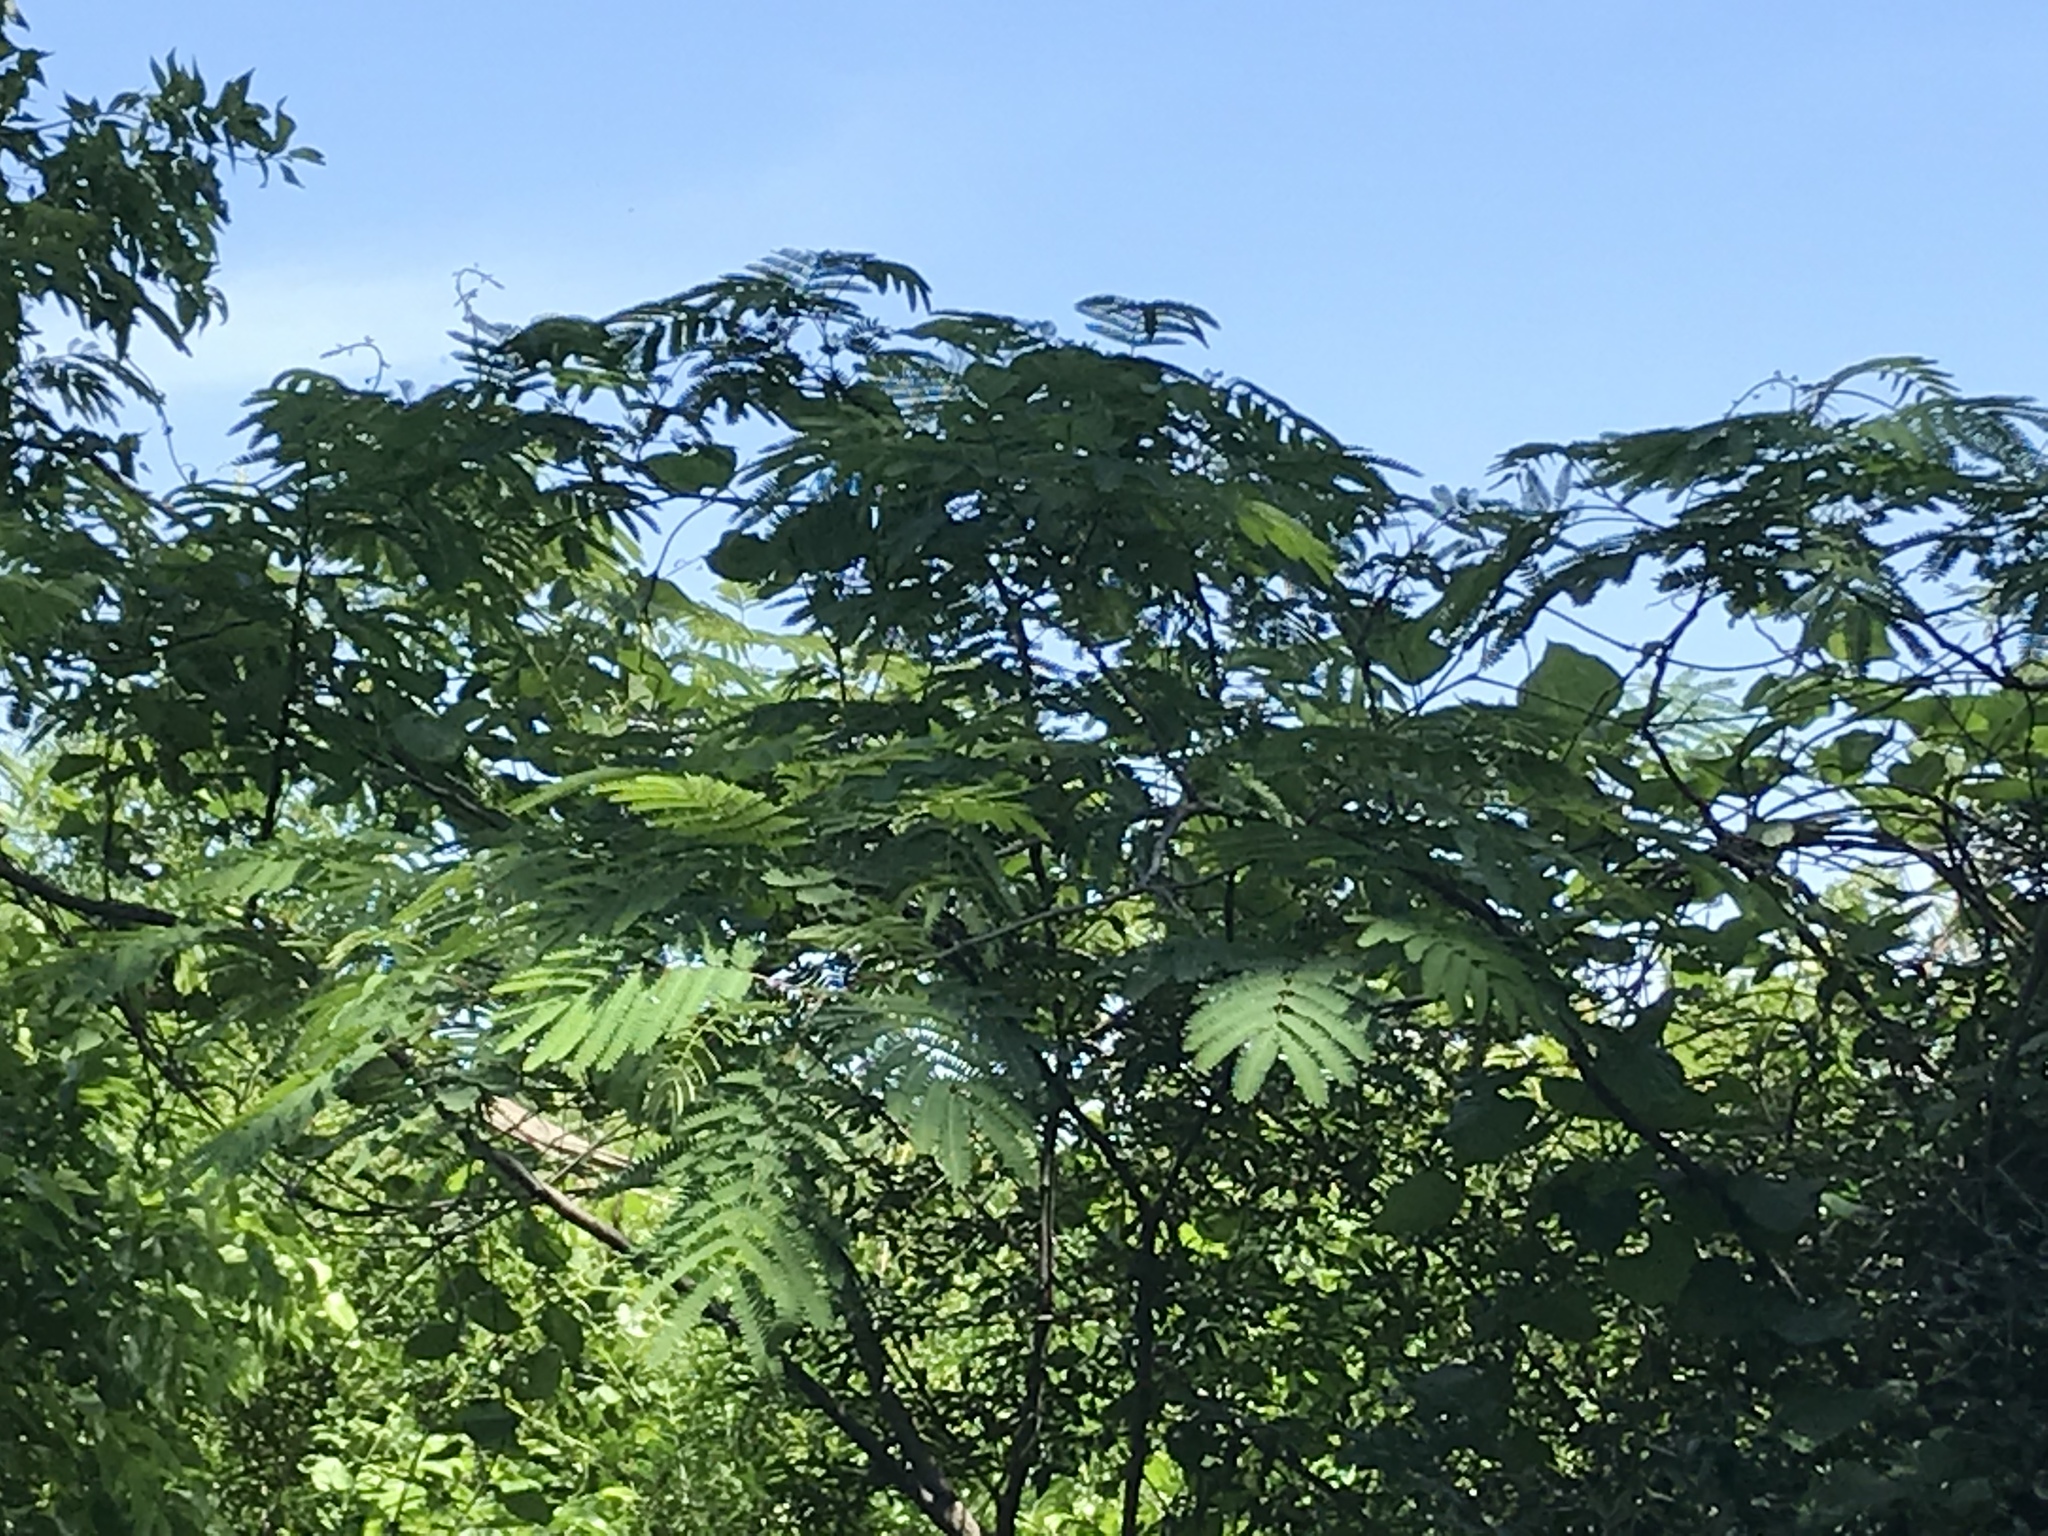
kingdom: Plantae
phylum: Tracheophyta
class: Magnoliopsida
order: Fabales
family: Fabaceae
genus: Albizia
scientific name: Albizia julibrissin
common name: Silktree
